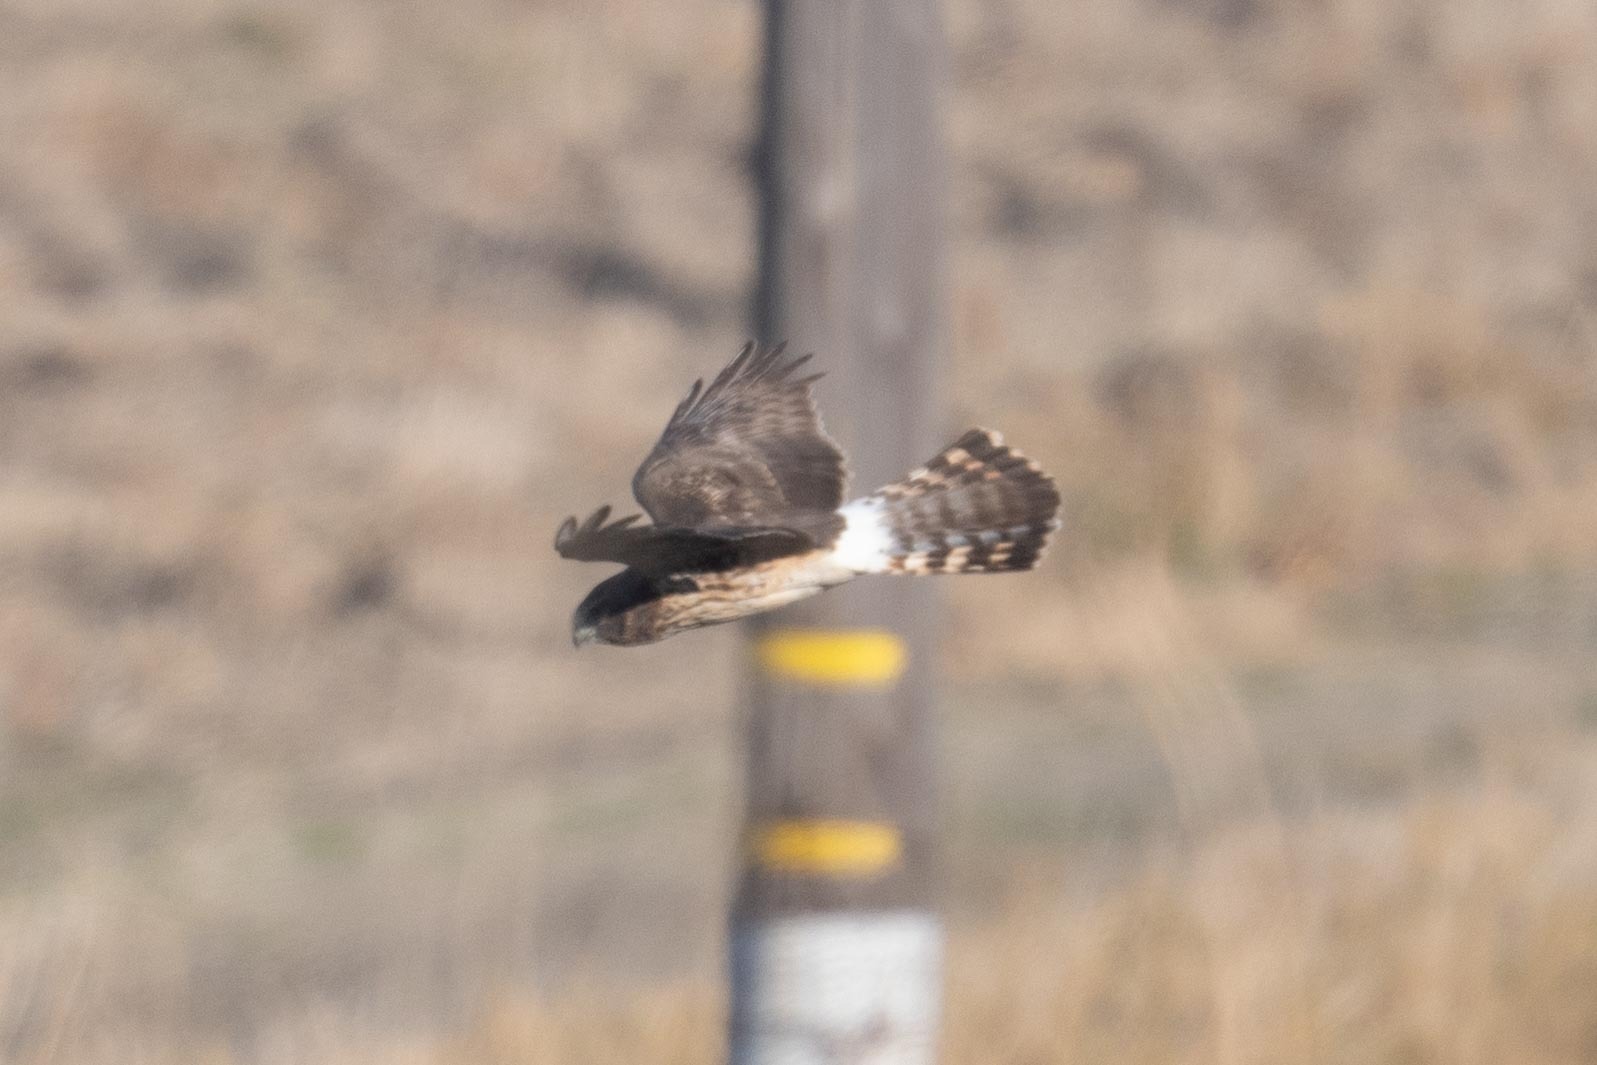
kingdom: Animalia
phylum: Chordata
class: Aves
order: Accipitriformes
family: Accipitridae
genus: Circus
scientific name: Circus cyaneus
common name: Hen harrier
